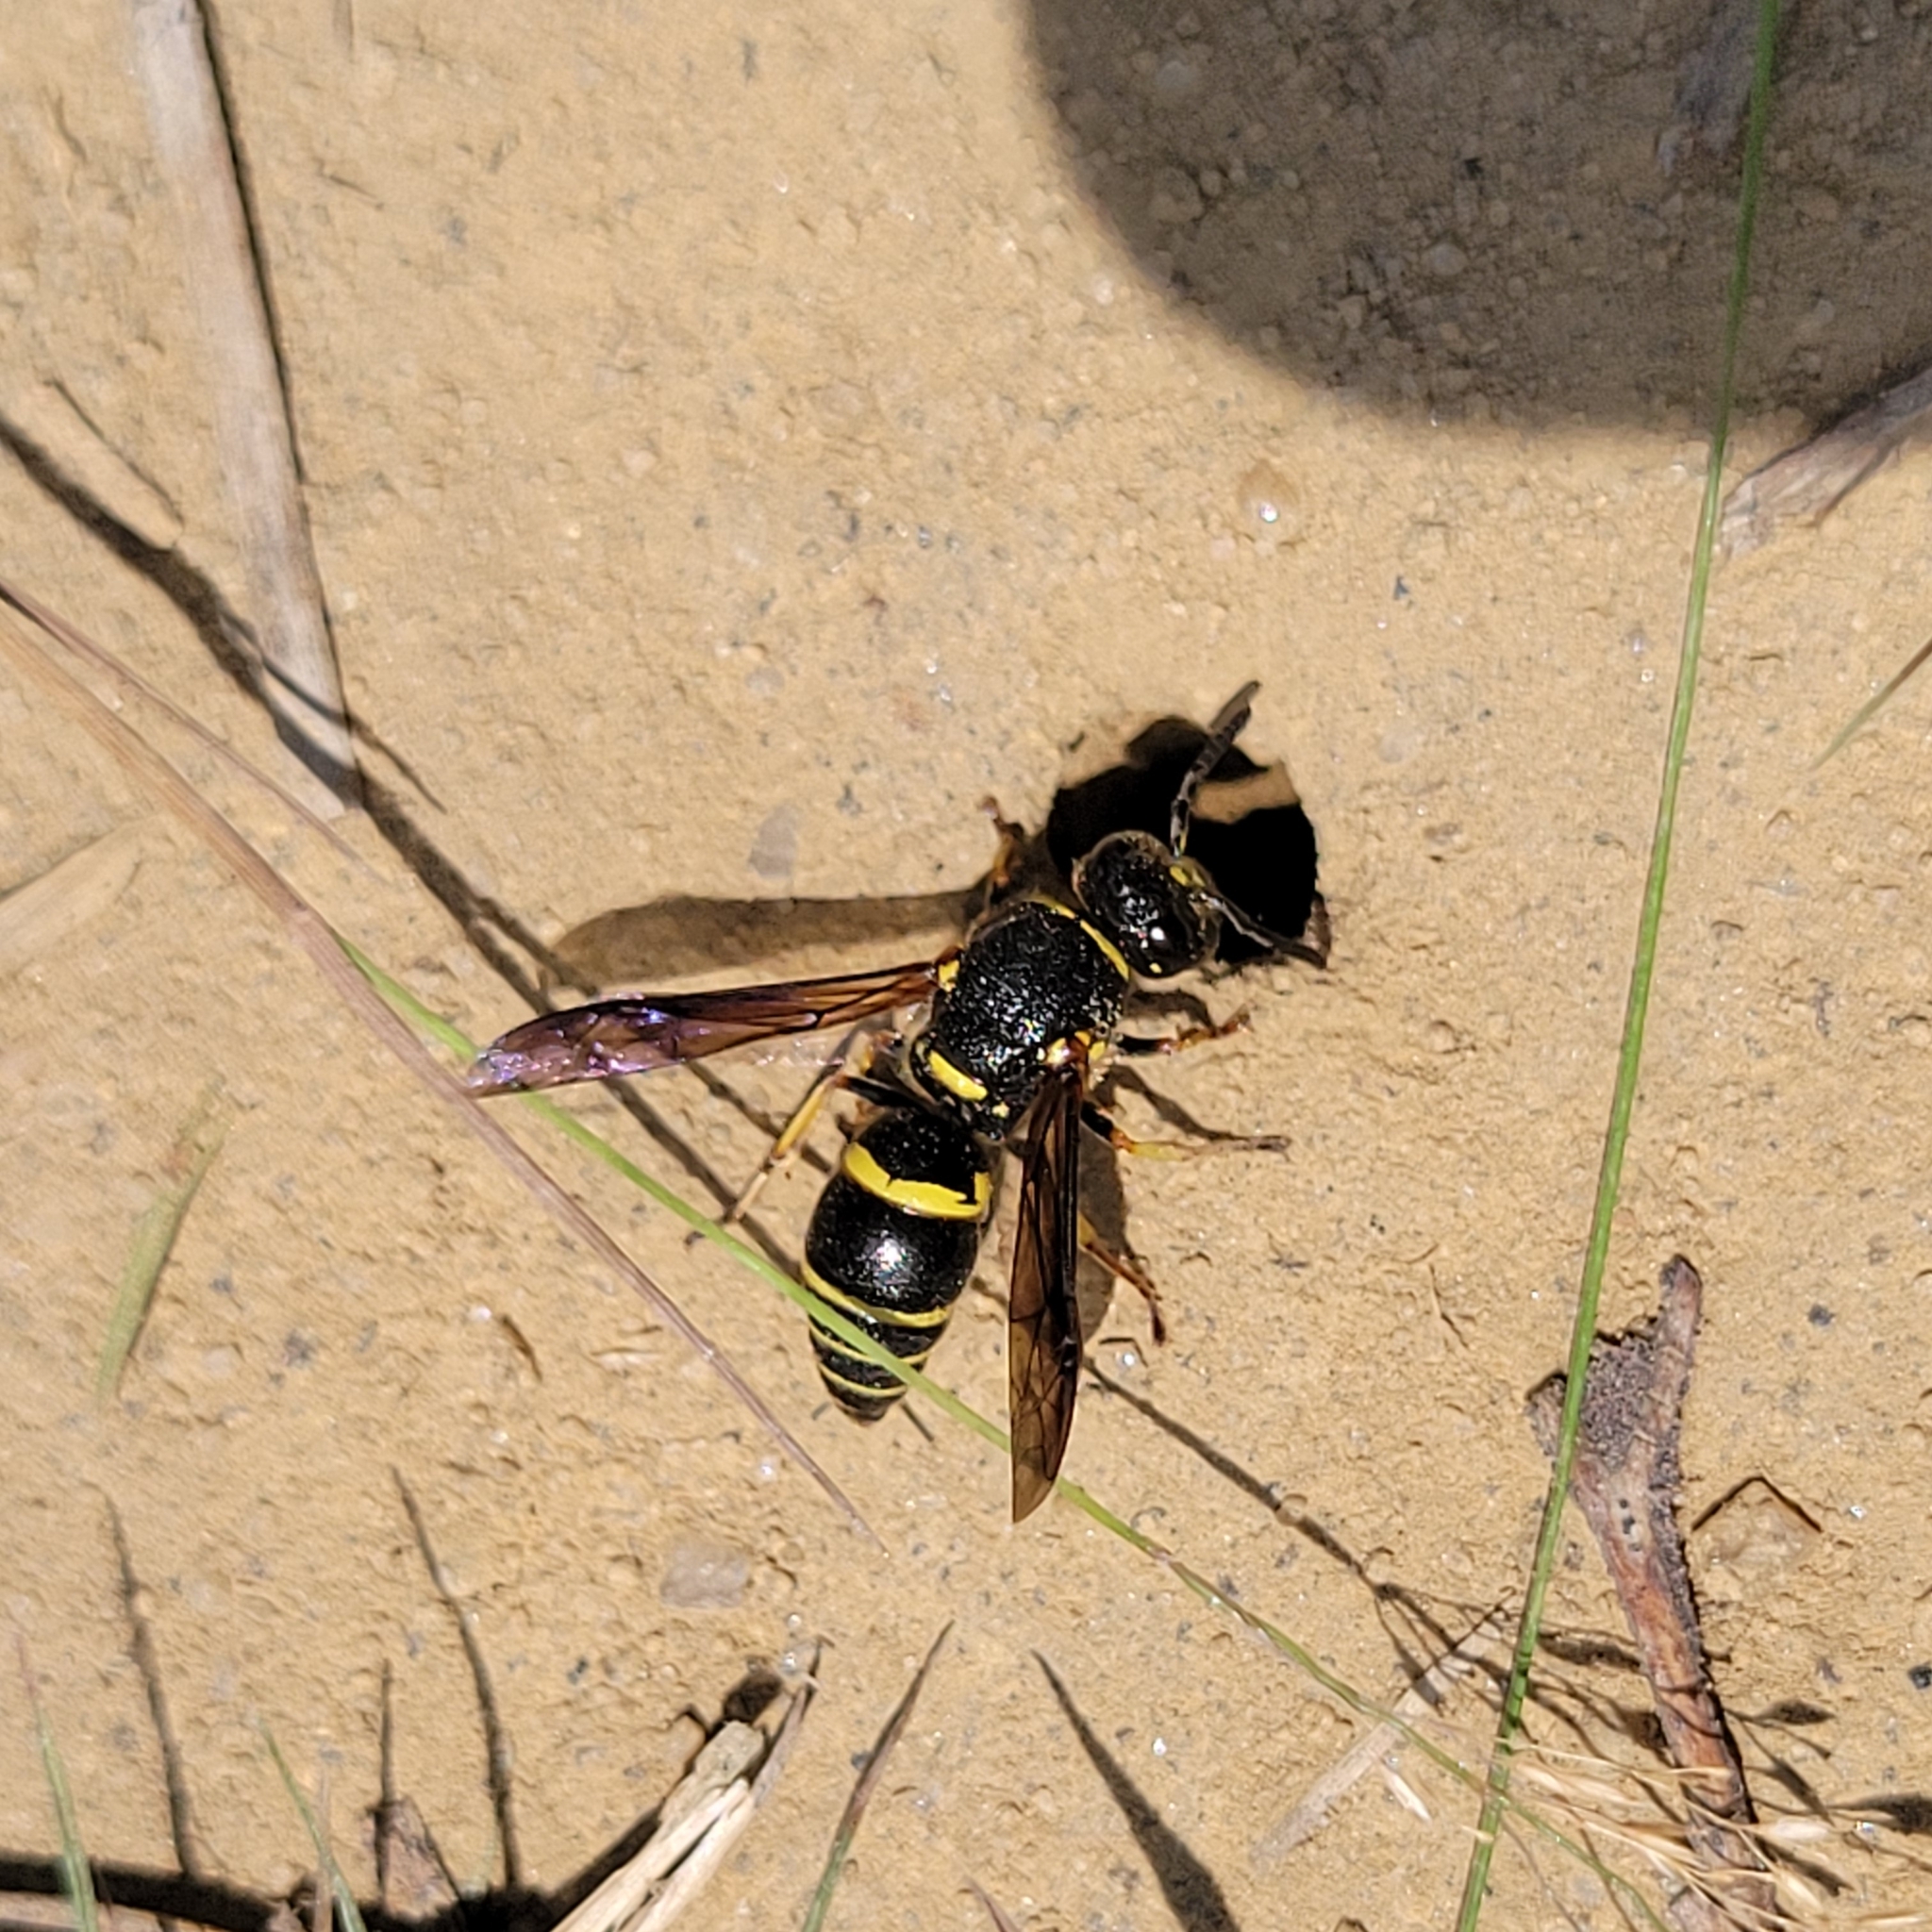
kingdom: Animalia
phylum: Arthropoda
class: Insecta
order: Hymenoptera
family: Eumenidae
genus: Euodynerus
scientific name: Euodynerus foraminatus
